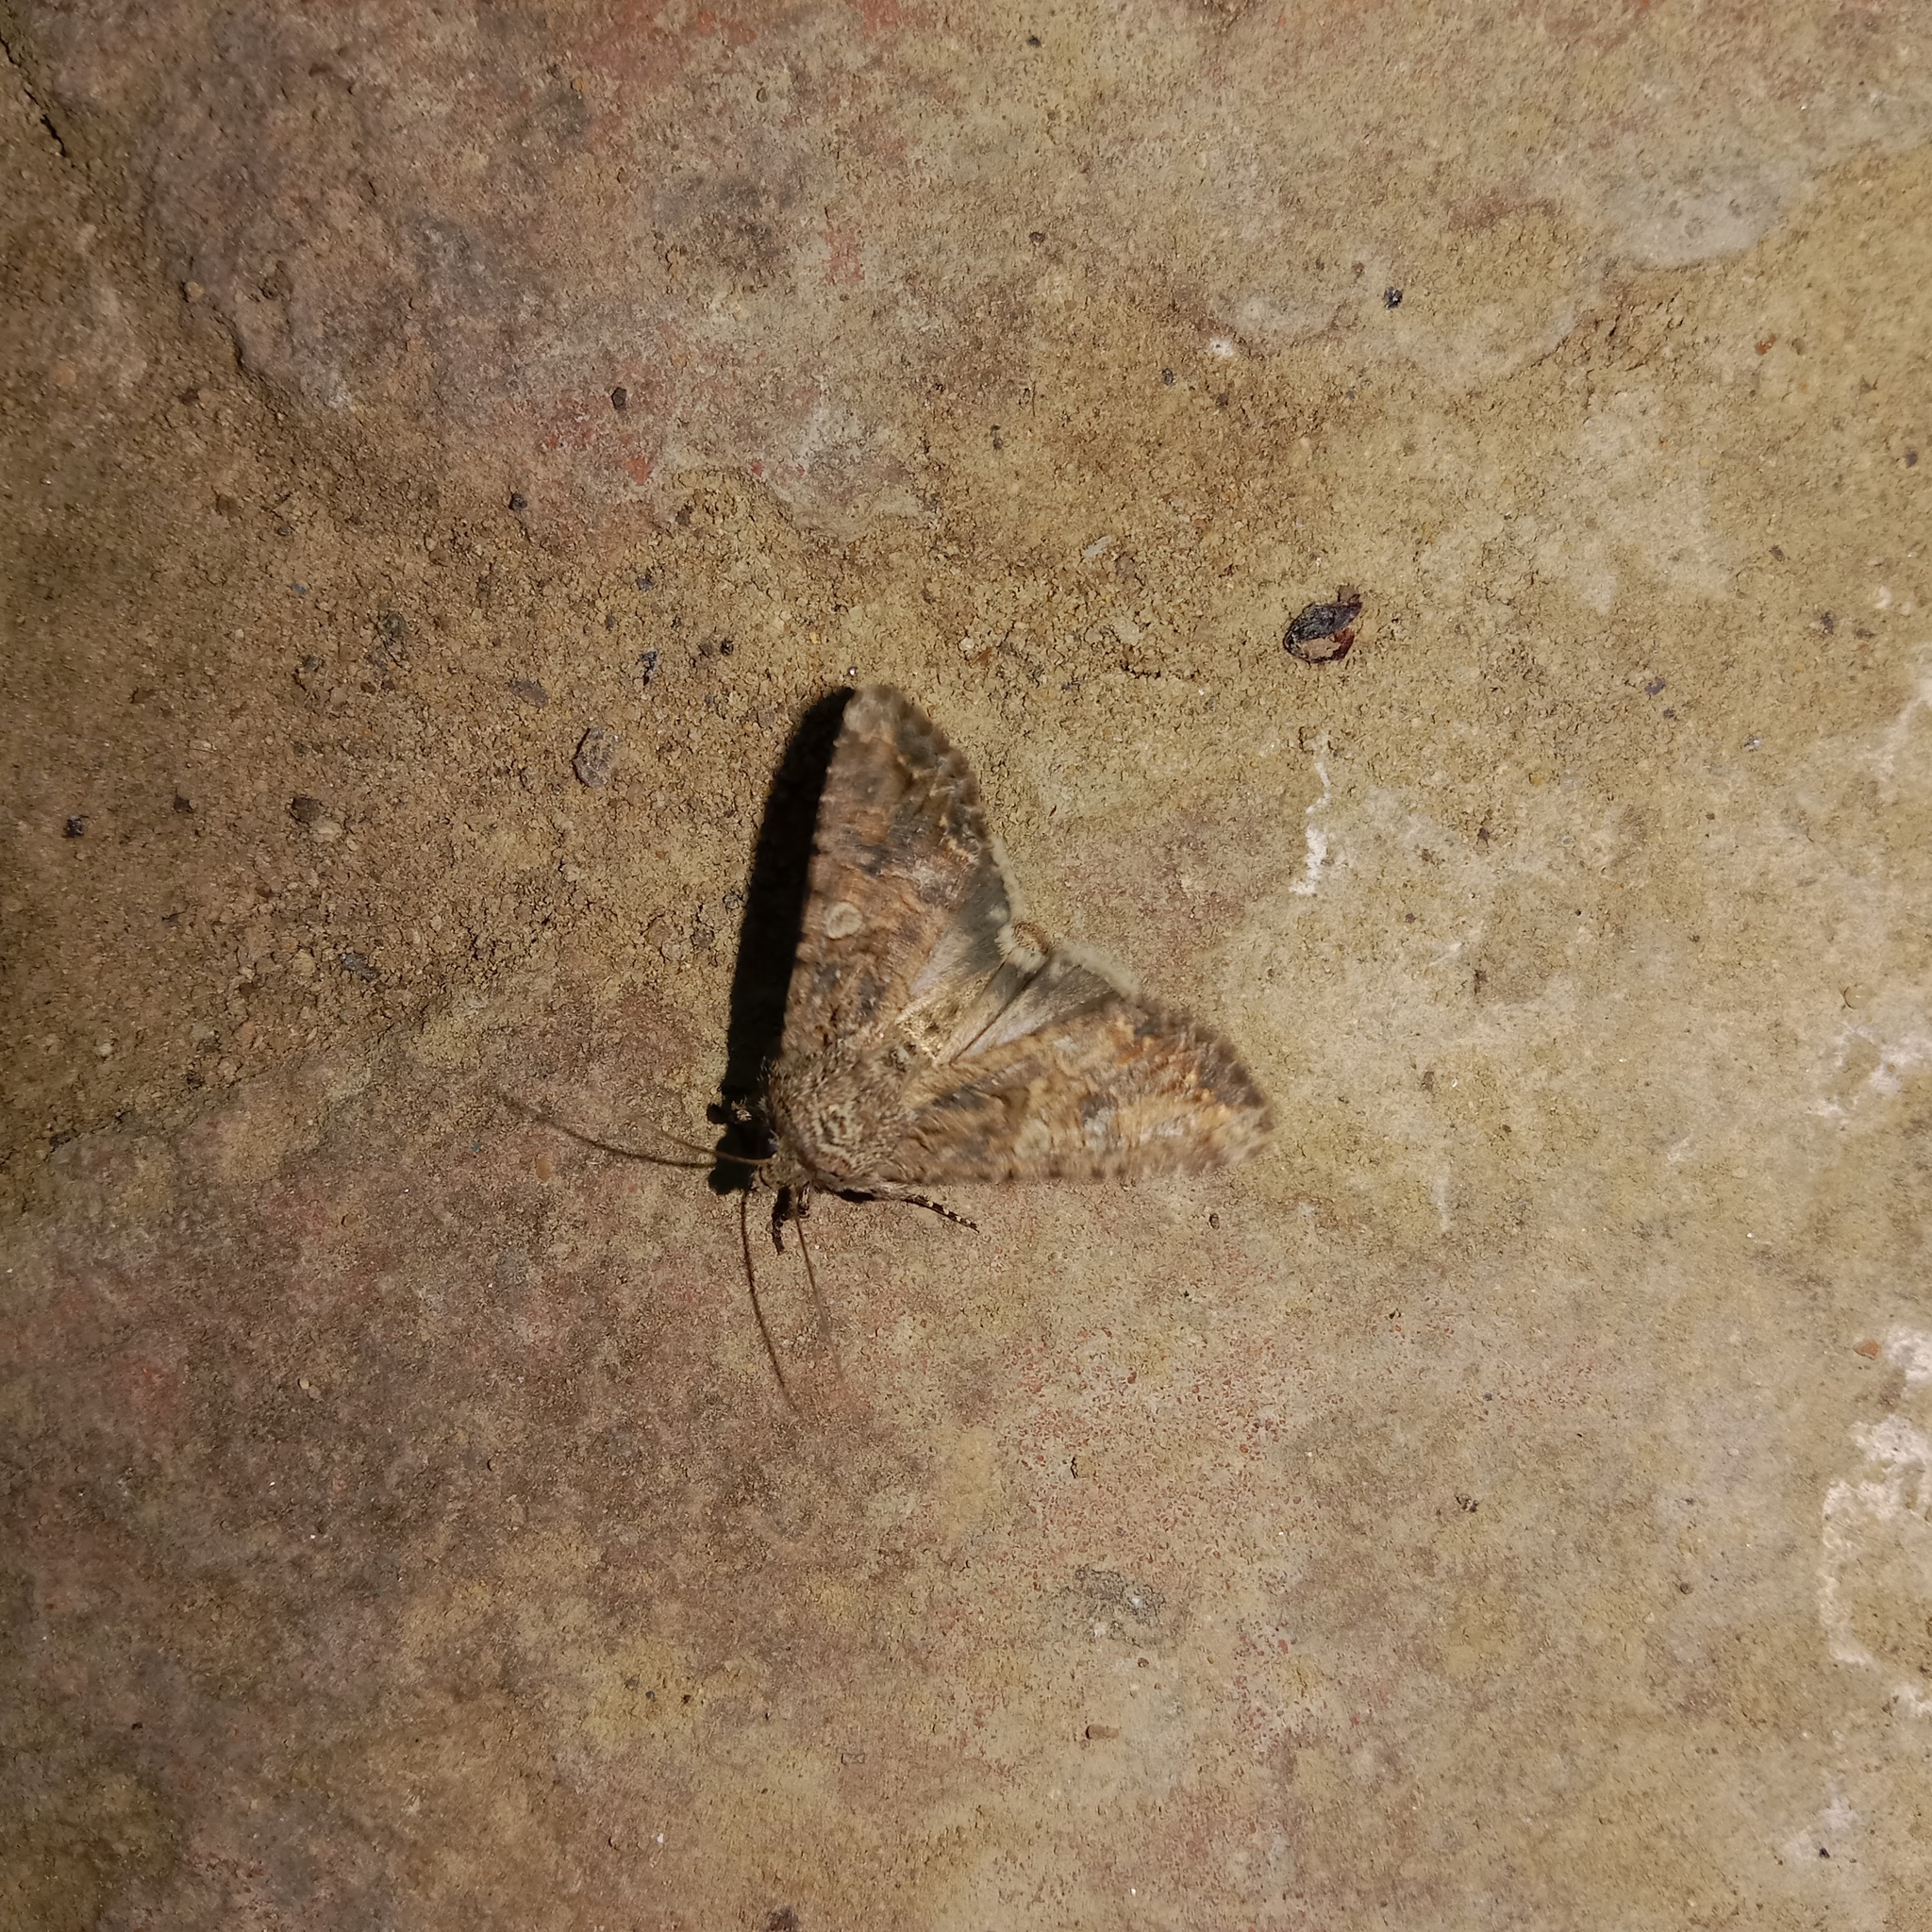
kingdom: Animalia
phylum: Arthropoda
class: Insecta
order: Lepidoptera
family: Noctuidae
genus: Anarta
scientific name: Anarta trifolii
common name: Clover cutworm moth
